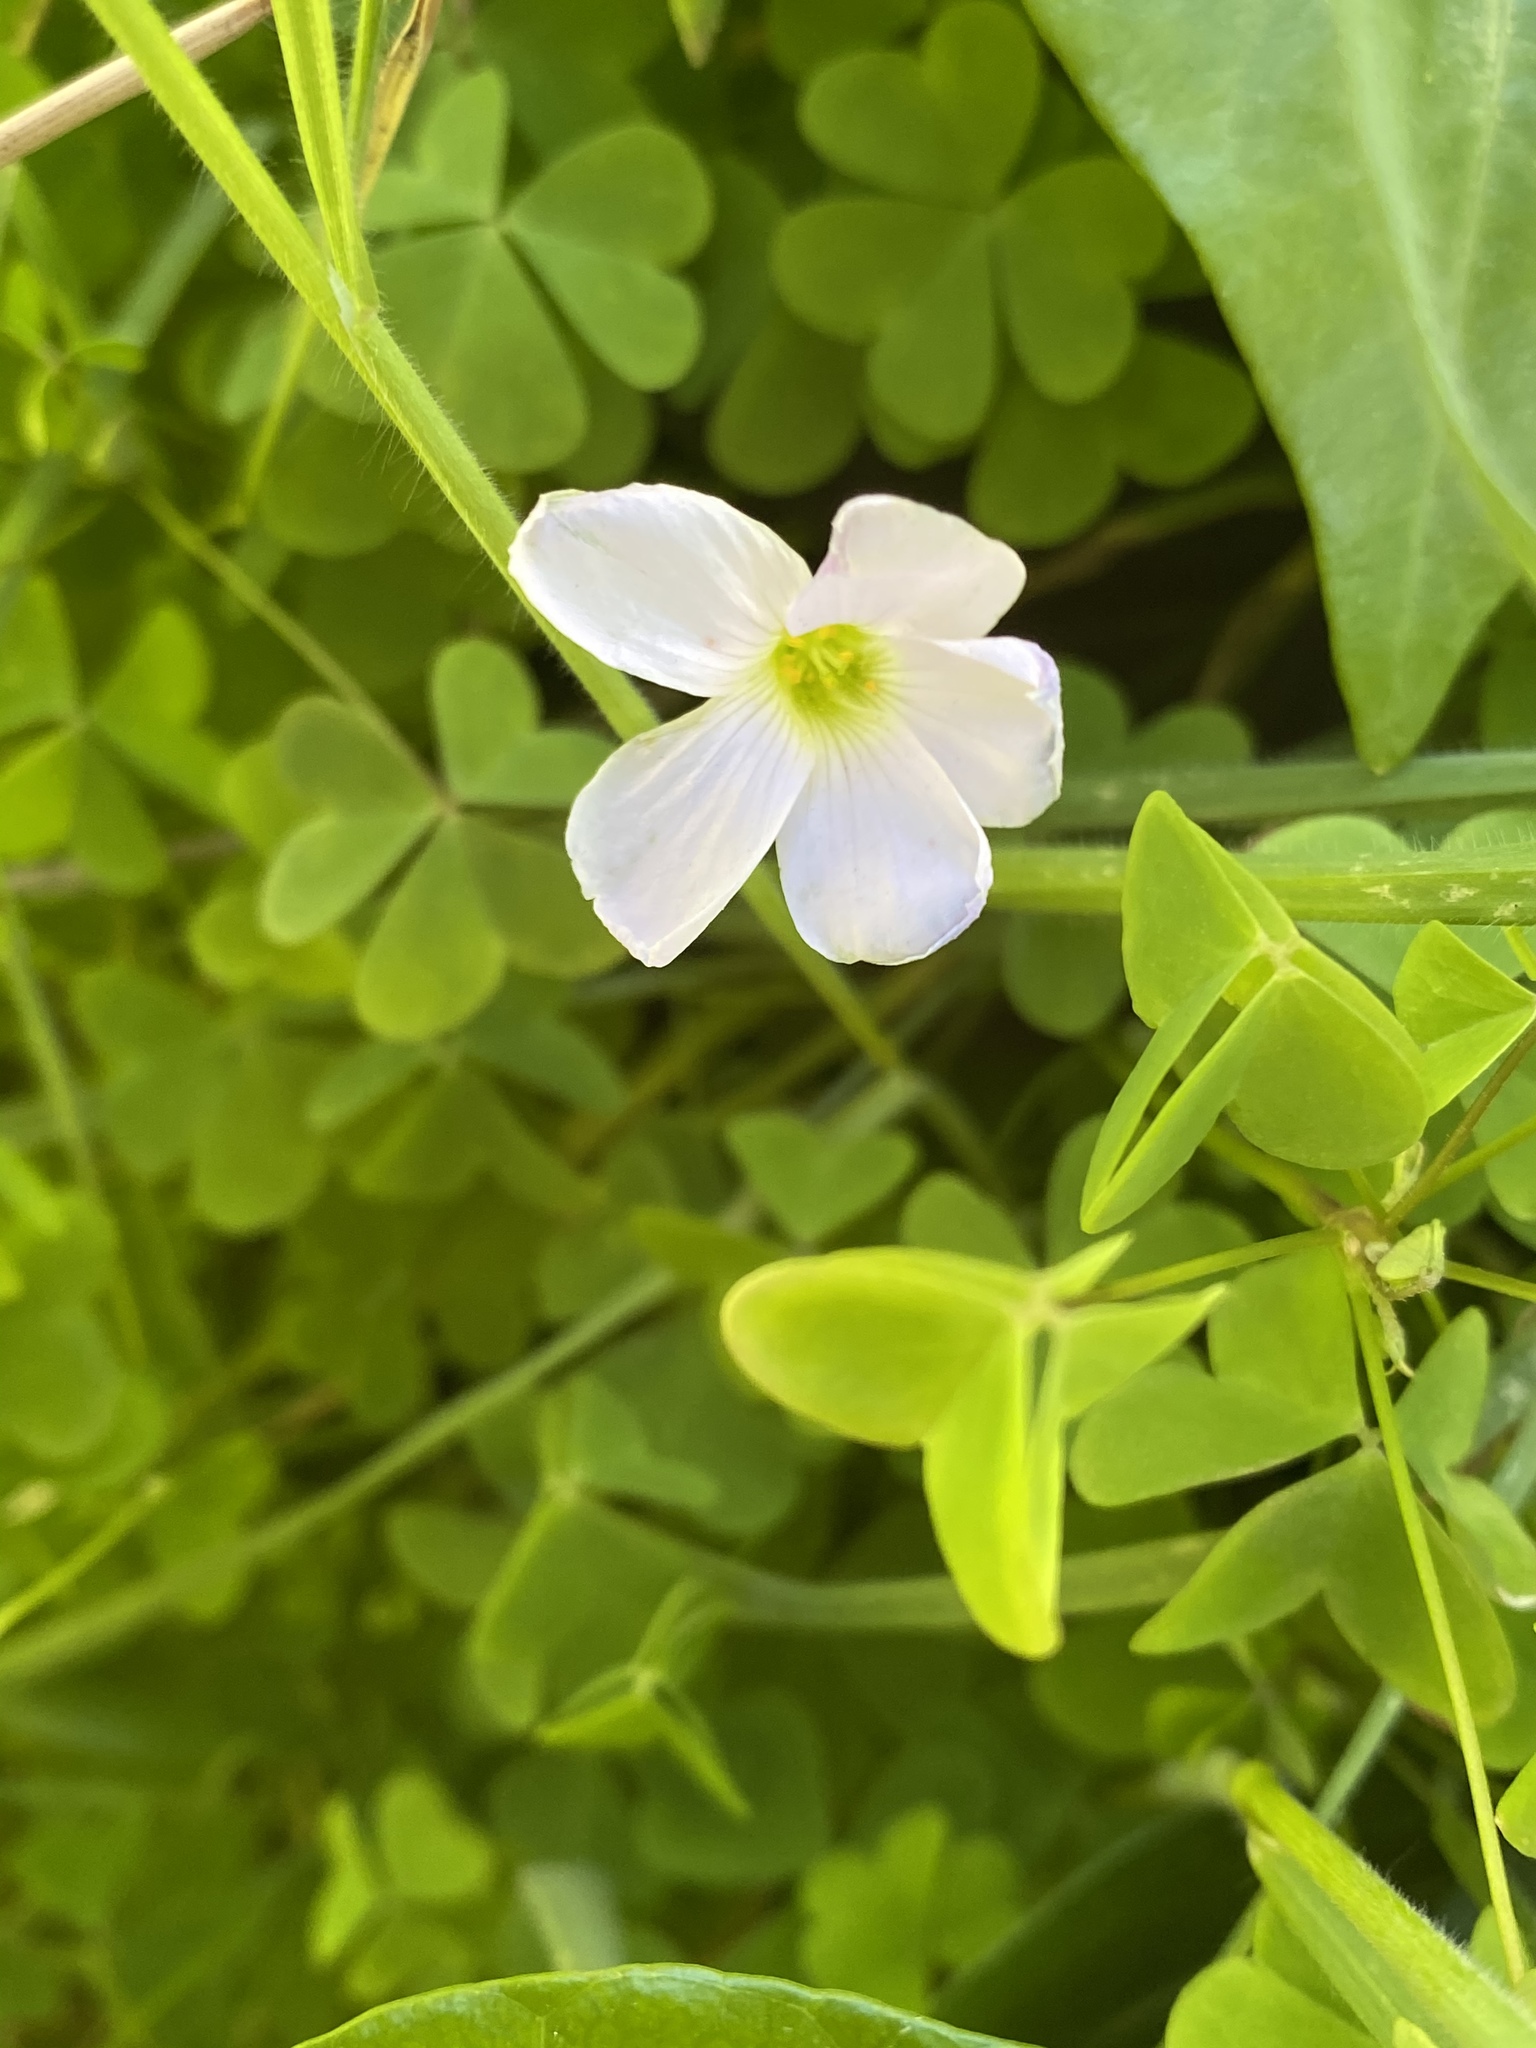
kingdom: Plantae
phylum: Tracheophyta
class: Magnoliopsida
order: Oxalidales
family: Oxalidaceae
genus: Oxalis
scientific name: Oxalis incarnata
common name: Pale pink-sorrel
